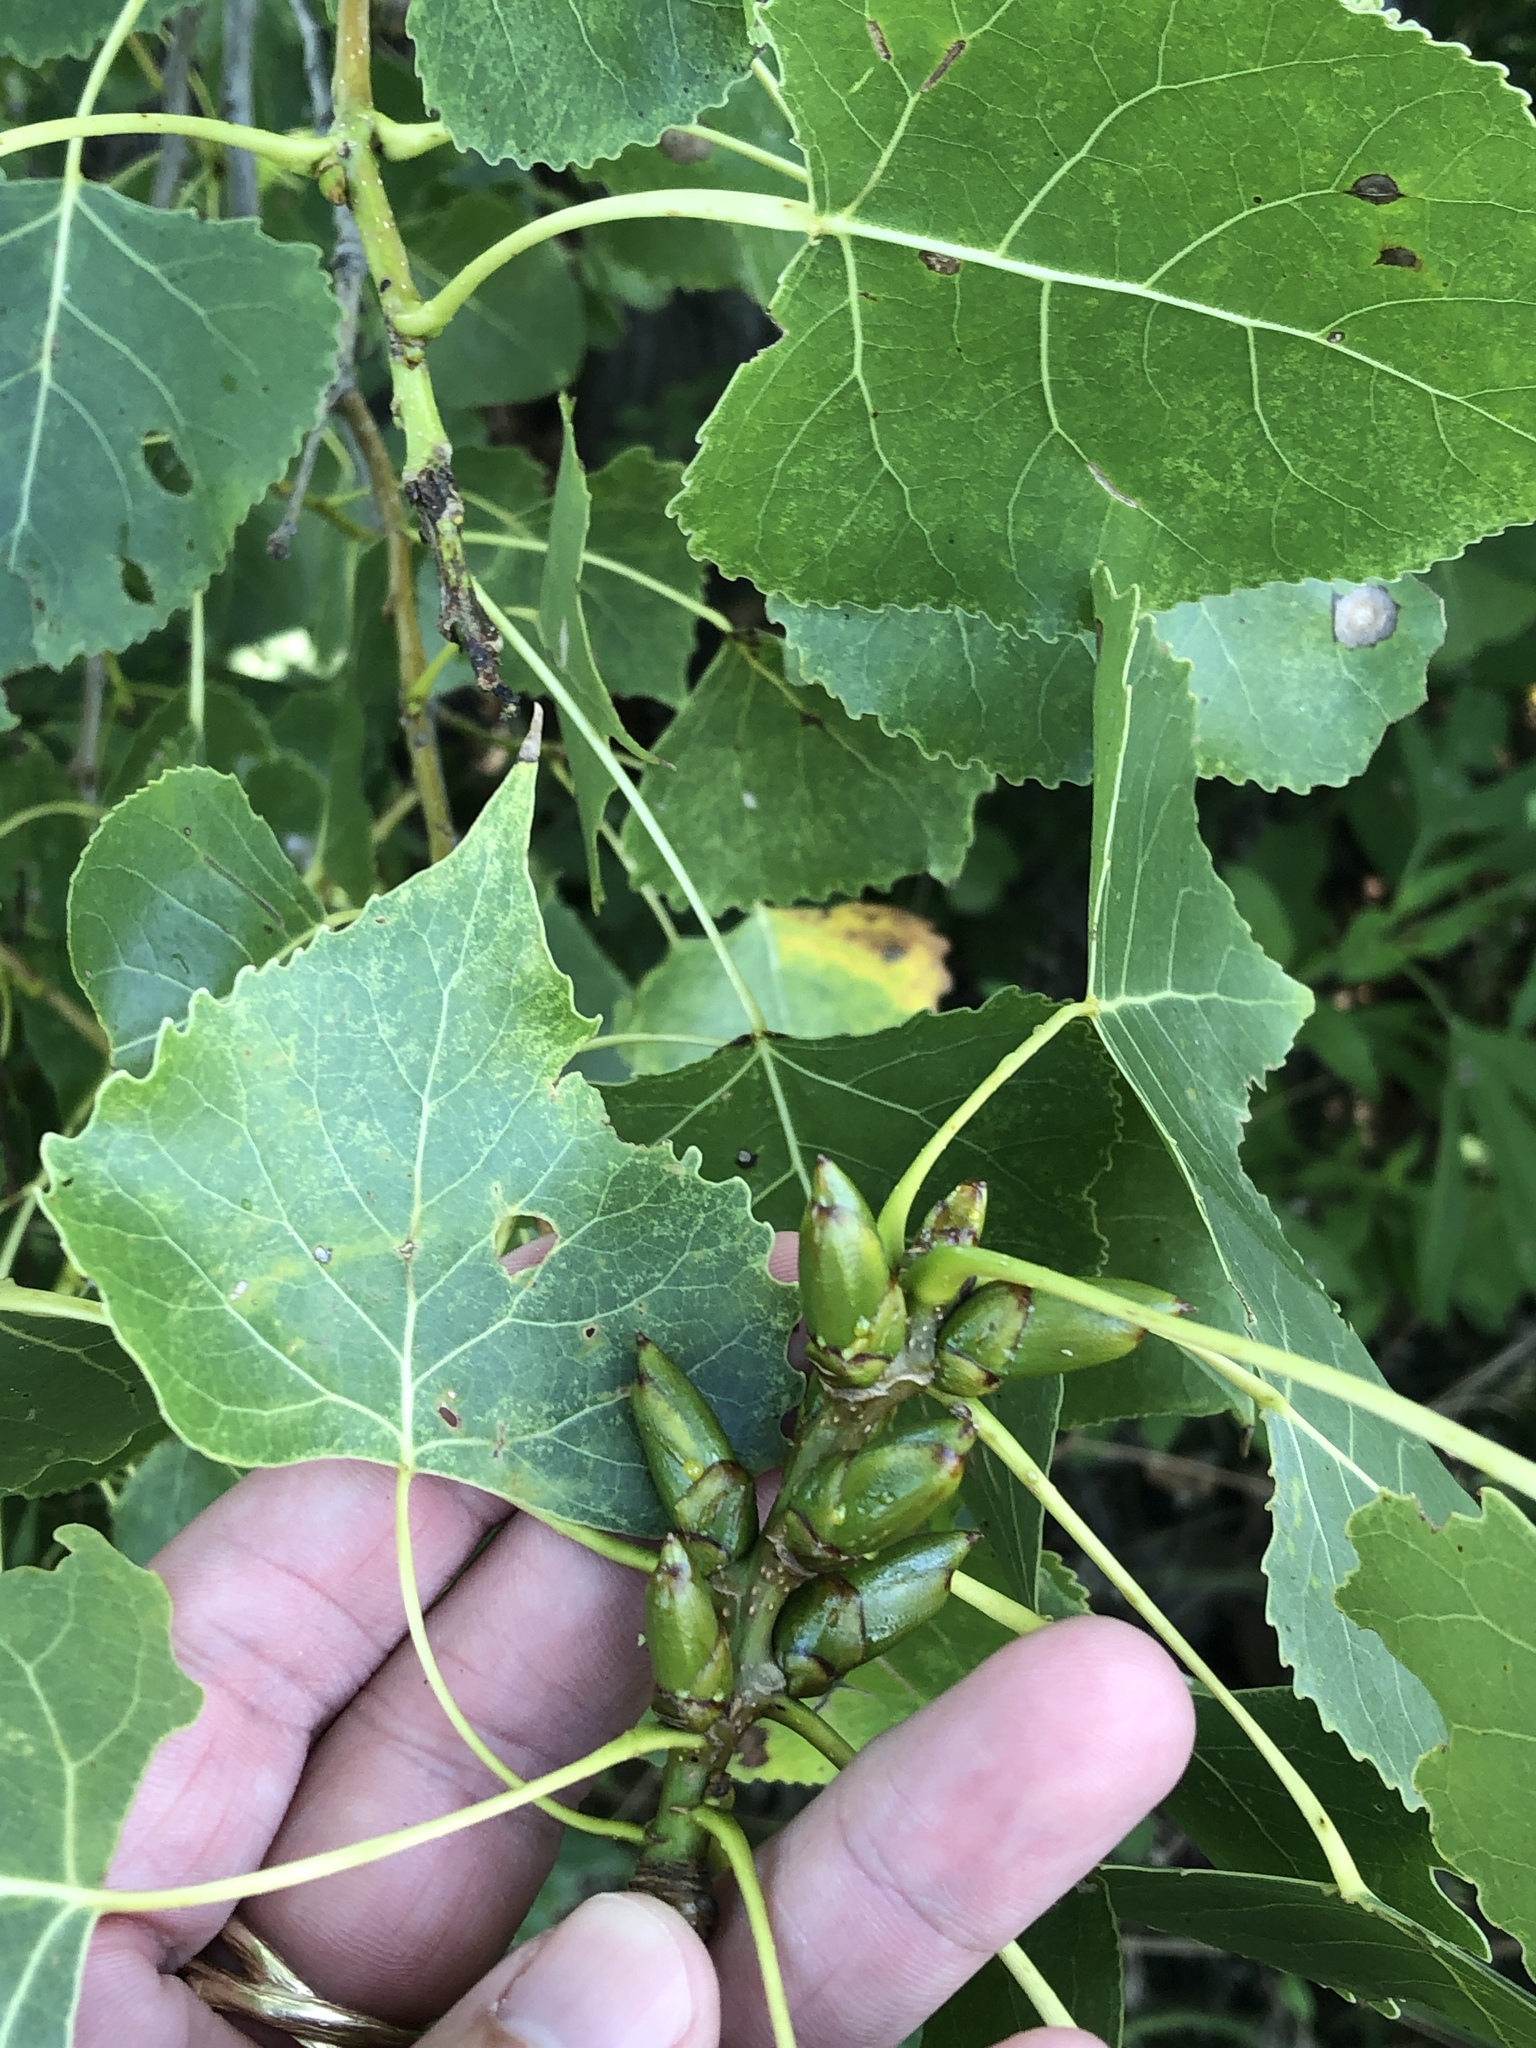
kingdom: Plantae
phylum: Tracheophyta
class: Magnoliopsida
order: Malpighiales
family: Salicaceae
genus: Populus
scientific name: Populus deltoides
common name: Eastern cottonwood
